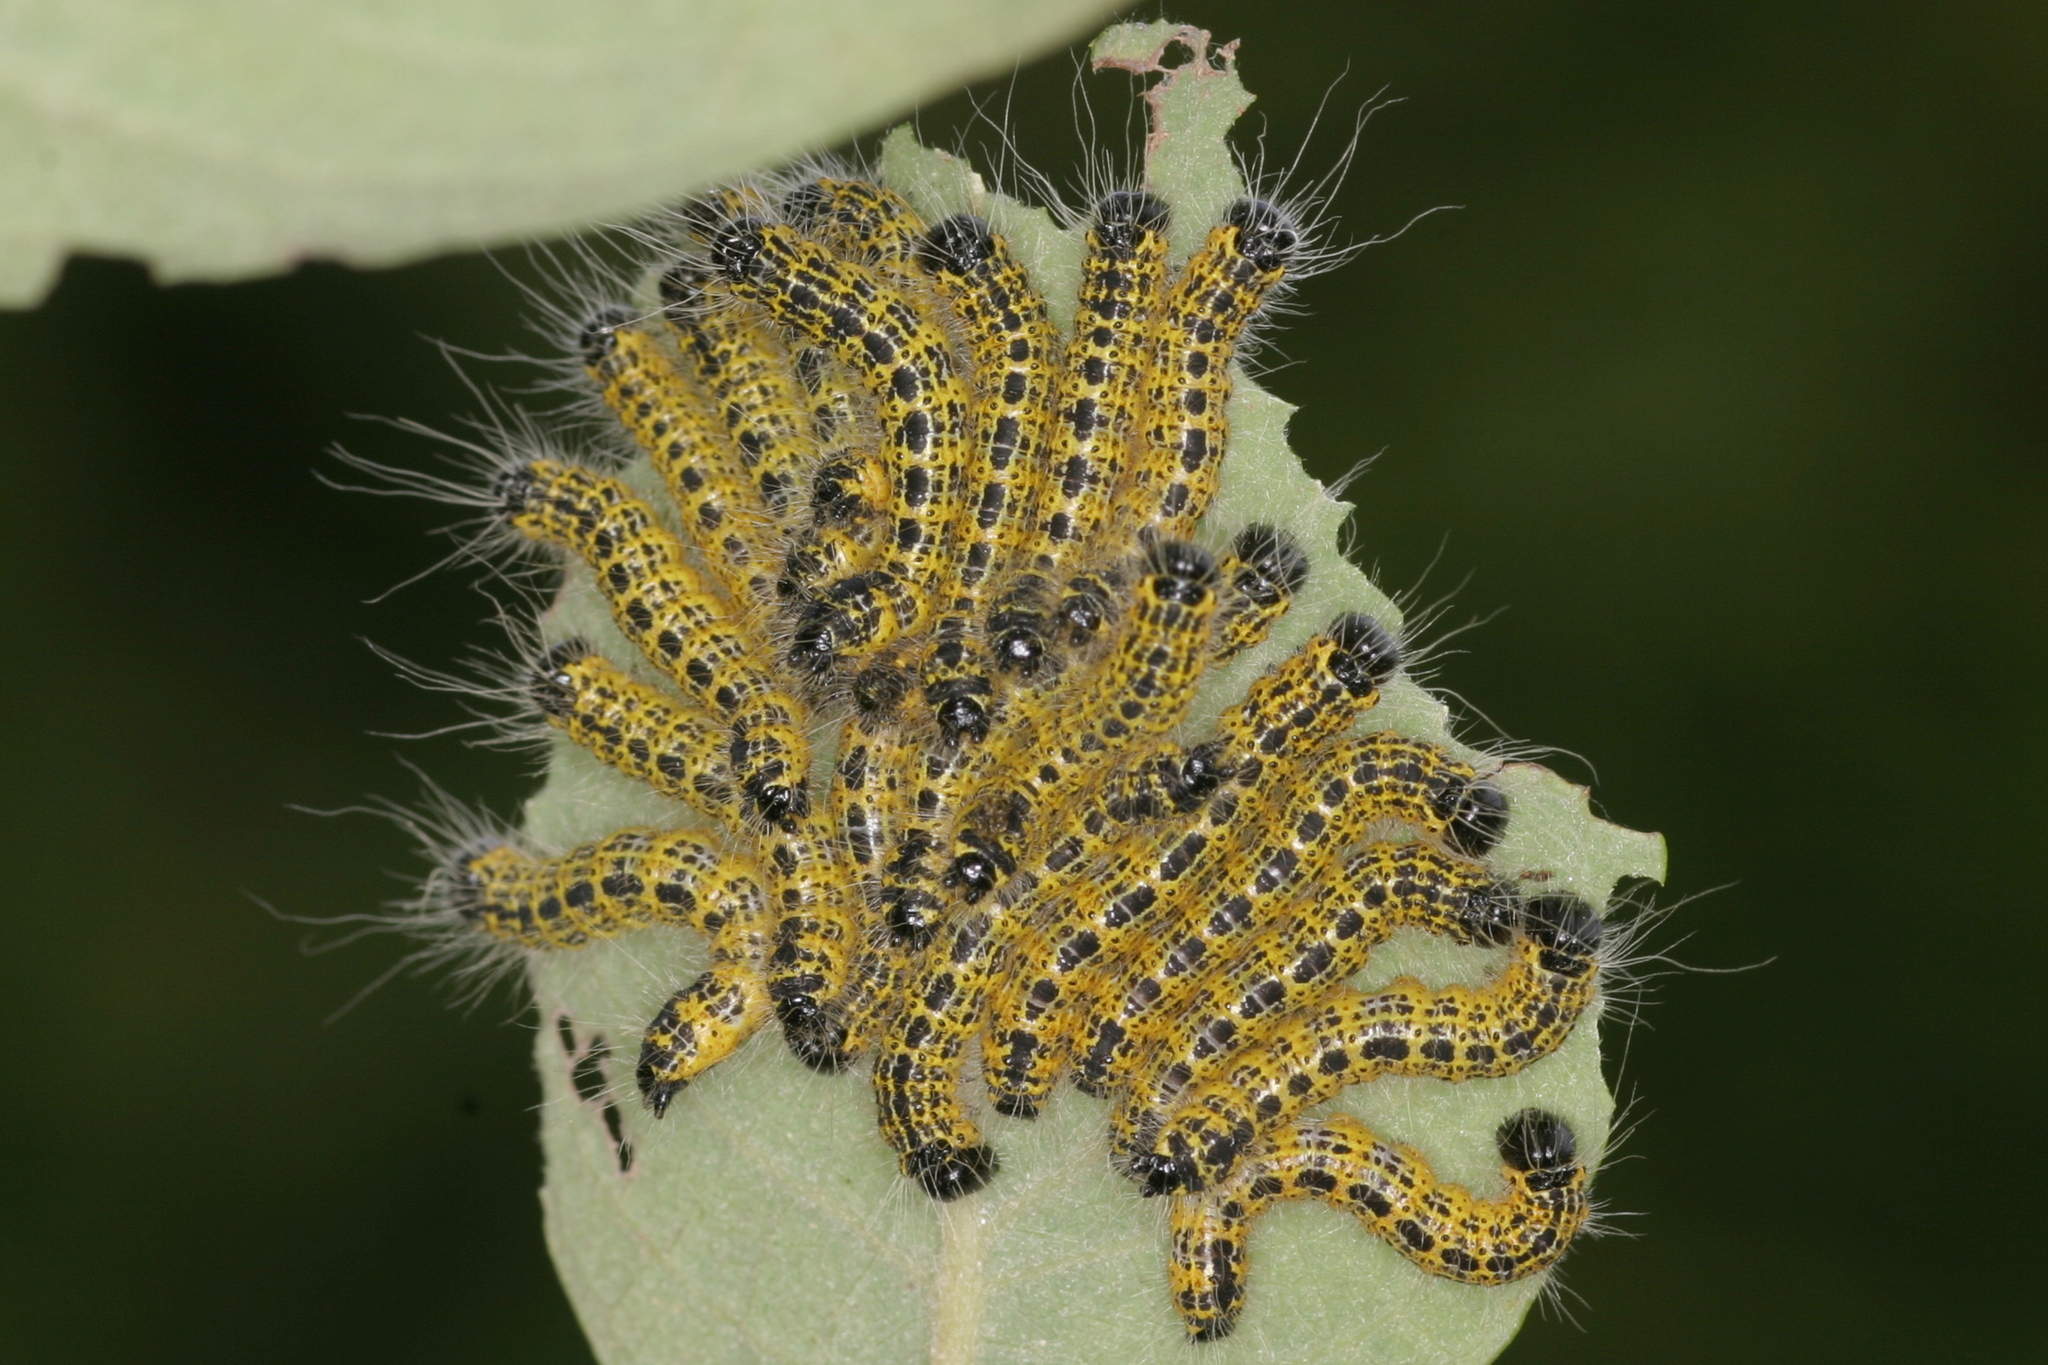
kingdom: Animalia
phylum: Arthropoda
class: Insecta
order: Lepidoptera
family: Notodontidae
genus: Phalera
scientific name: Phalera bucephala
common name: Buff-tip
